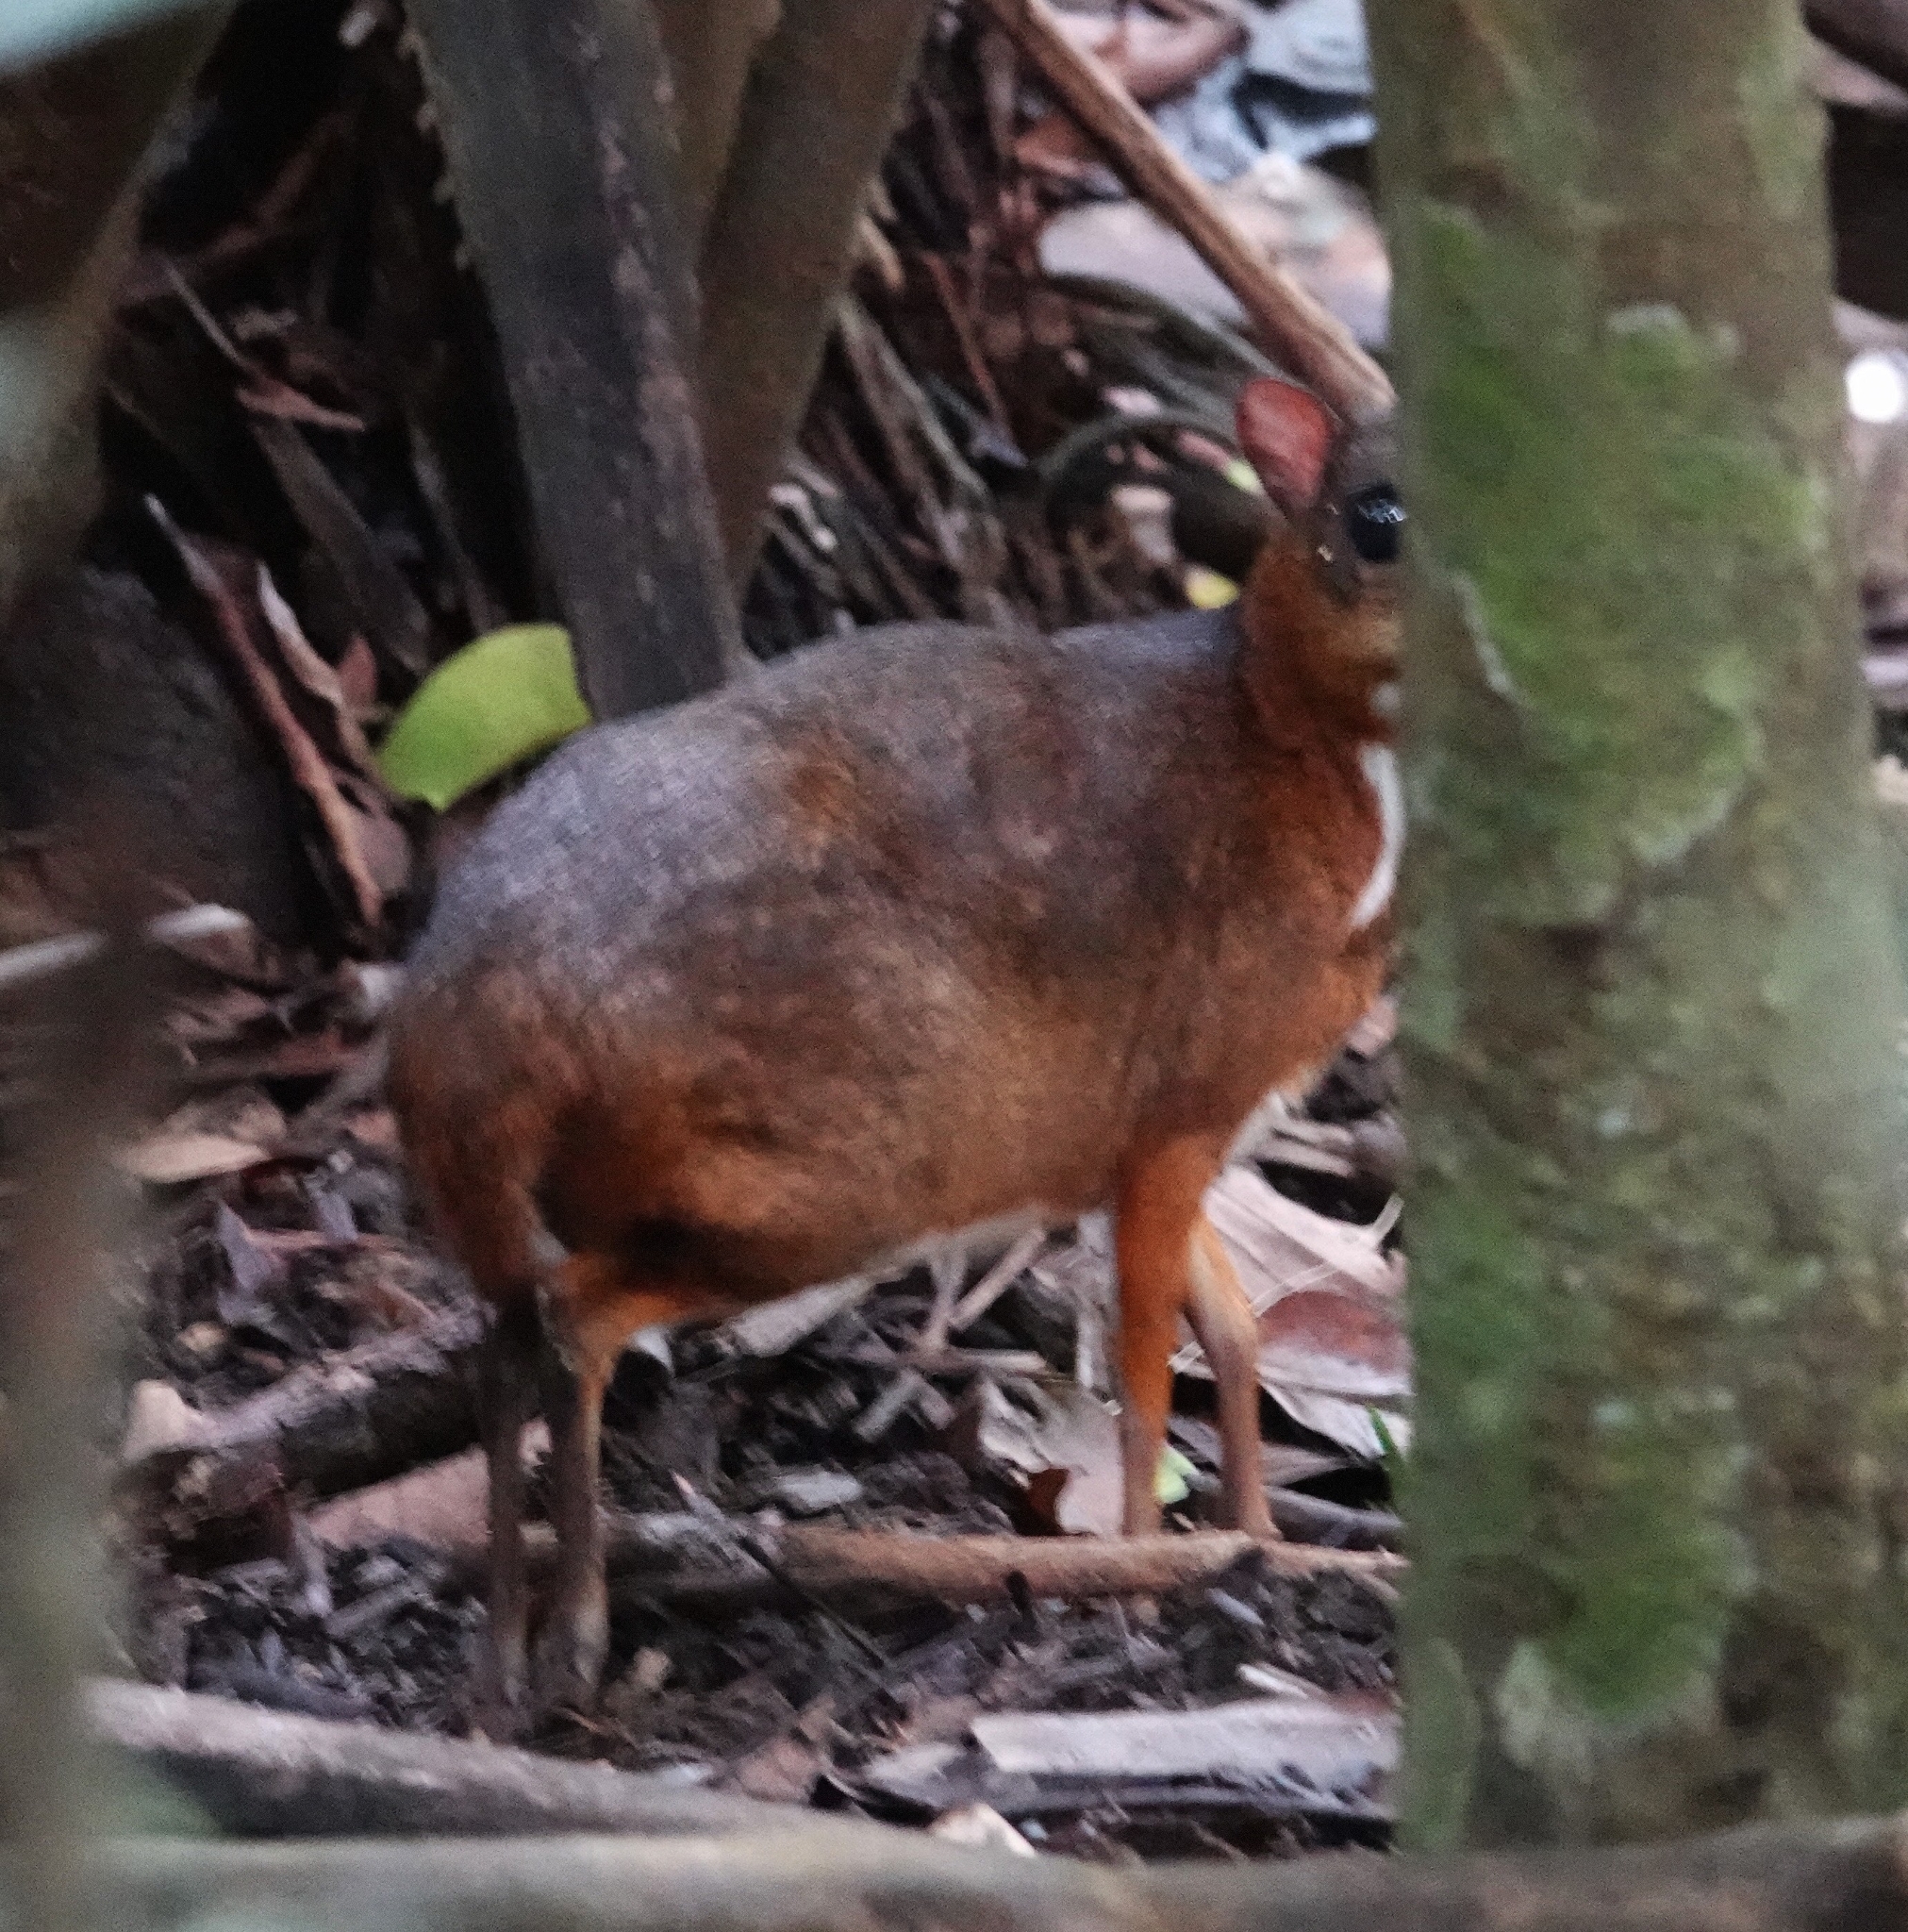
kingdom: Animalia
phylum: Chordata
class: Mammalia
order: Artiodactyla
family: Tragulidae
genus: Tragulus
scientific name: Tragulus kanchil
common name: Lesser mouse-deer
